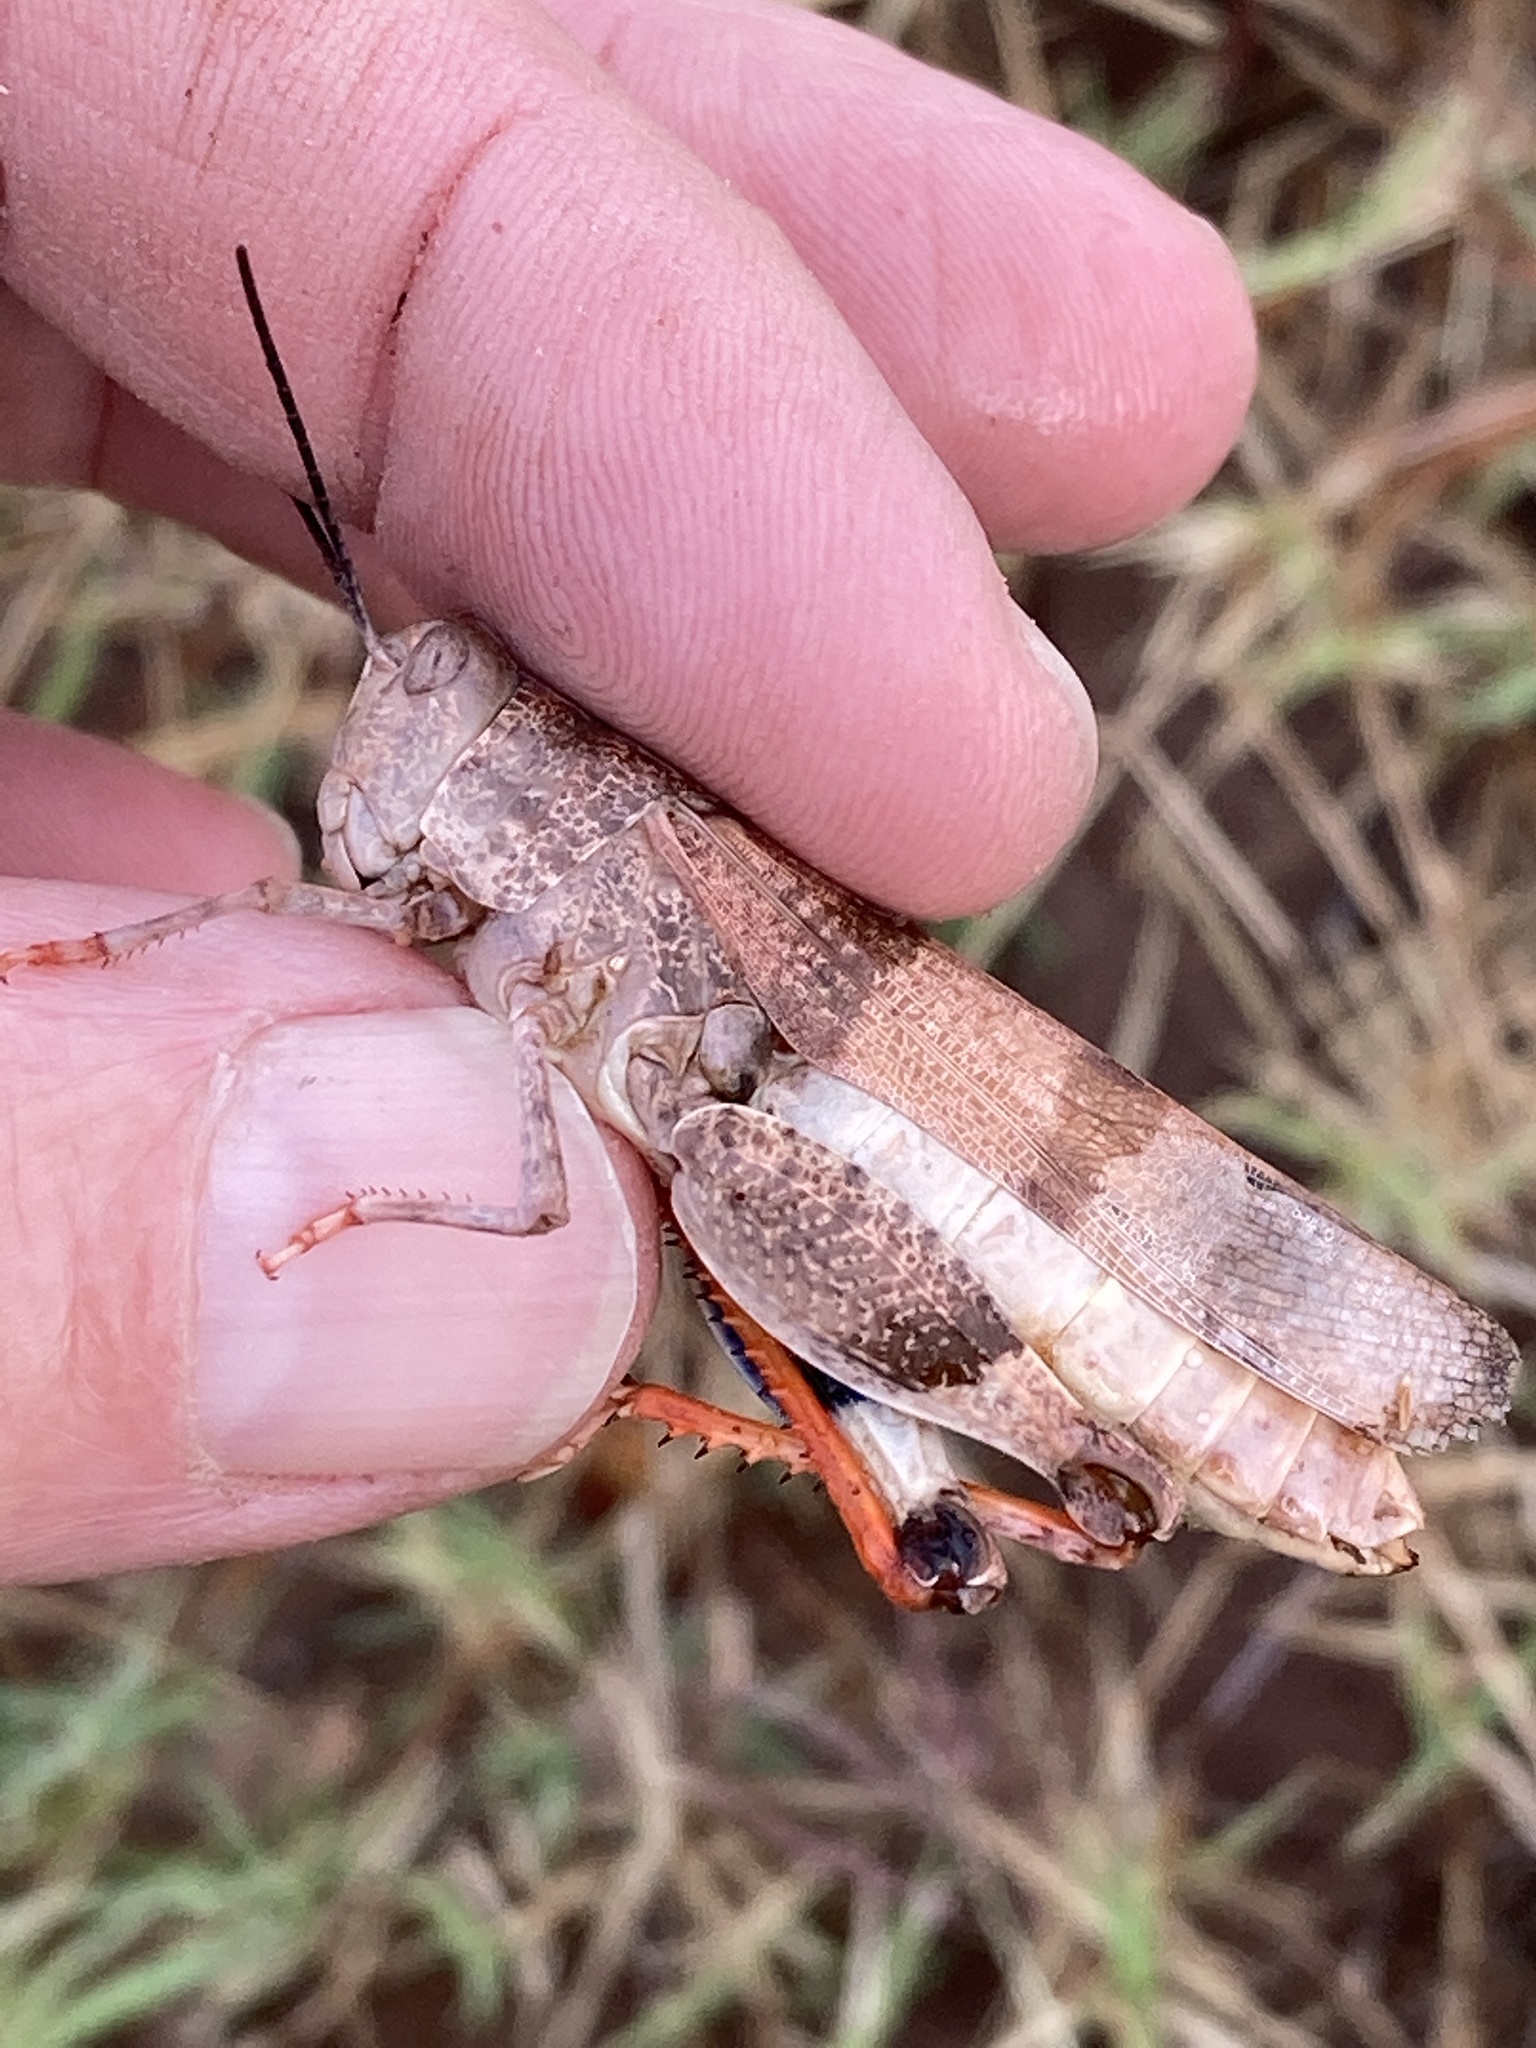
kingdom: Animalia
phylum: Arthropoda
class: Insecta
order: Orthoptera
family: Acrididae
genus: Hadrotettix
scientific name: Hadrotettix trifasciatus
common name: Threebanded grasshopper
